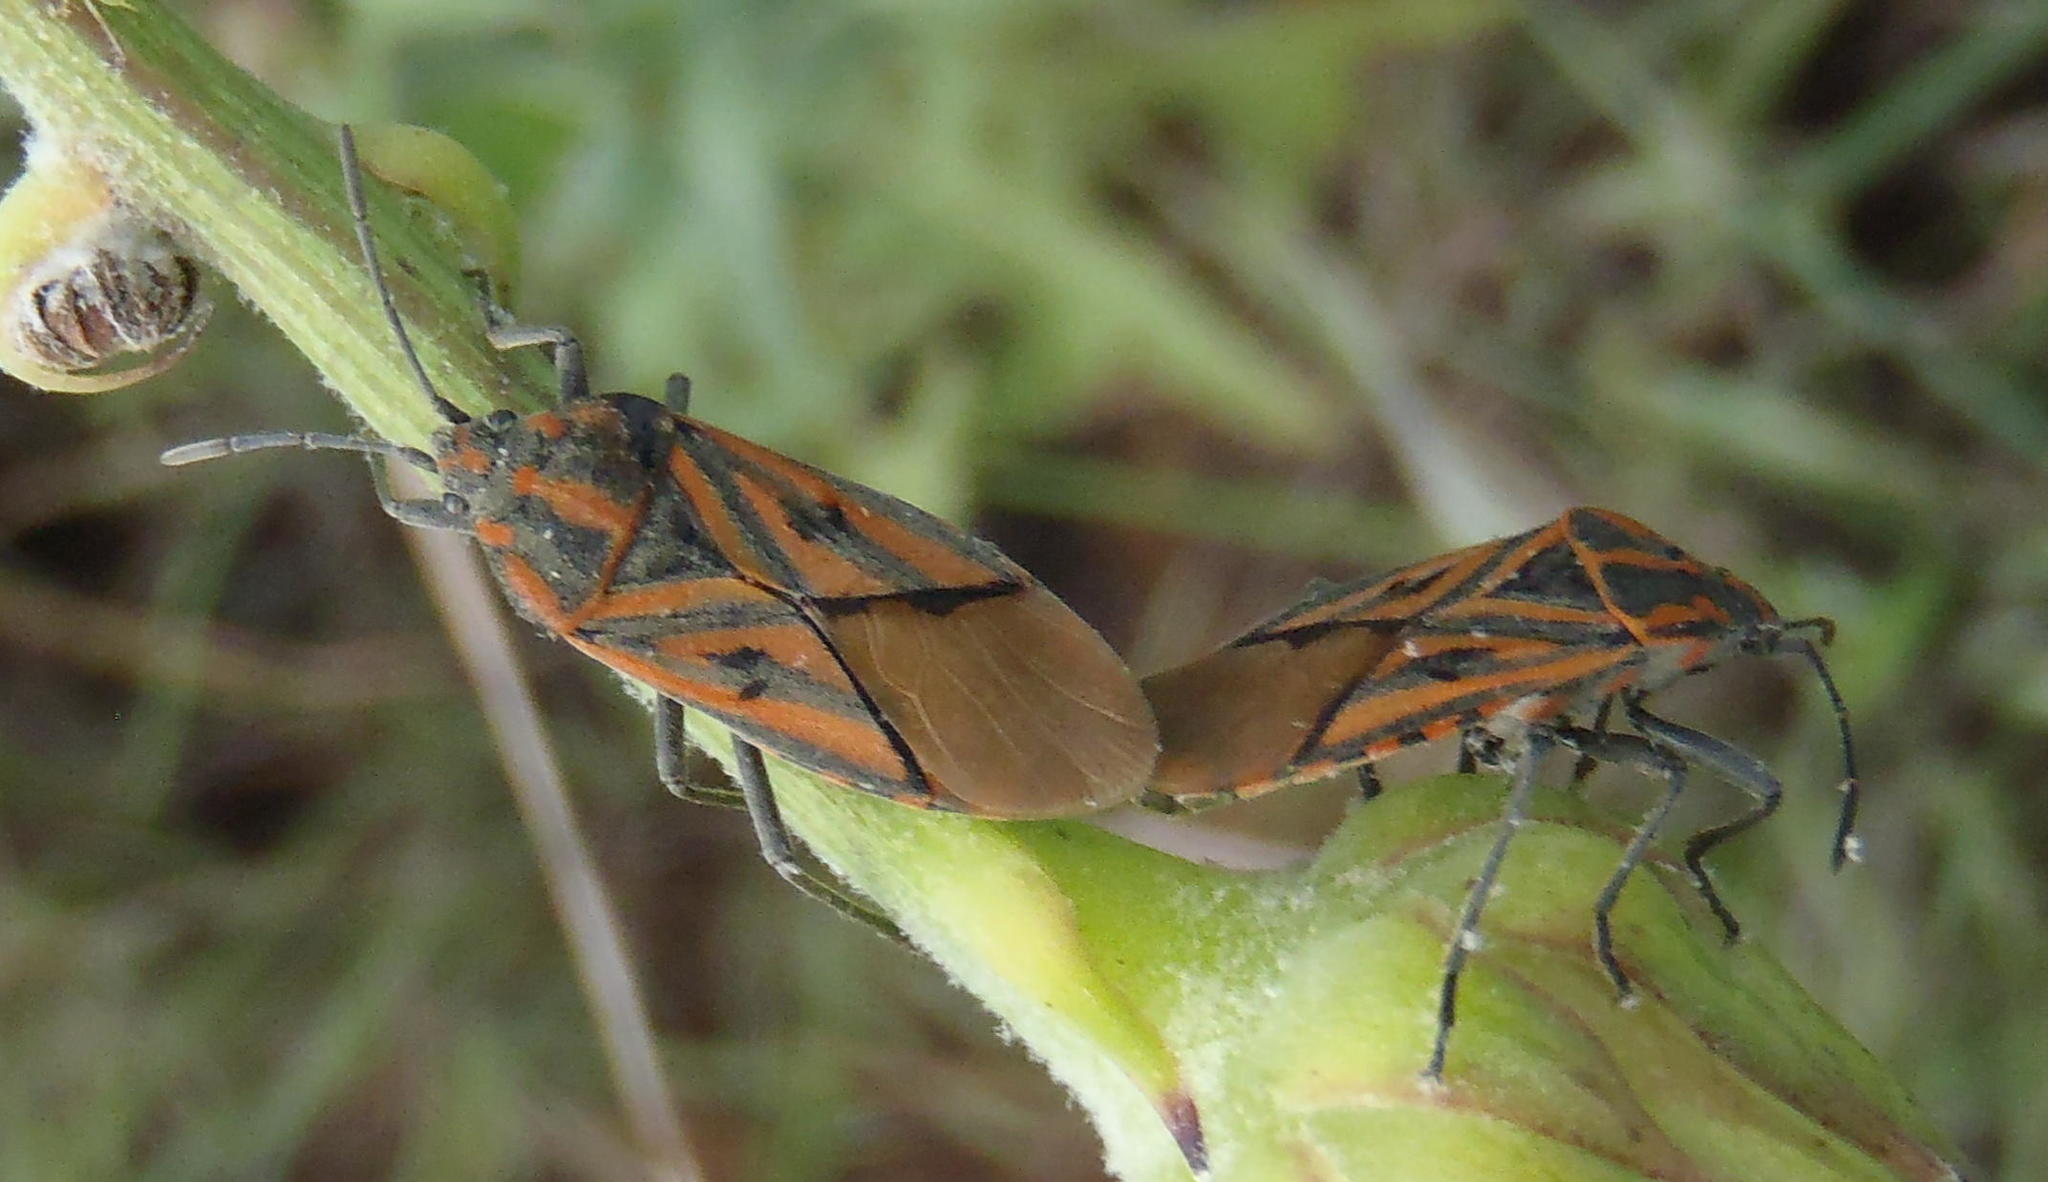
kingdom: Animalia
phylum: Arthropoda
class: Insecta
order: Hemiptera
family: Lygaeidae
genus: Spilostethus
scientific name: Spilostethus rivularis
